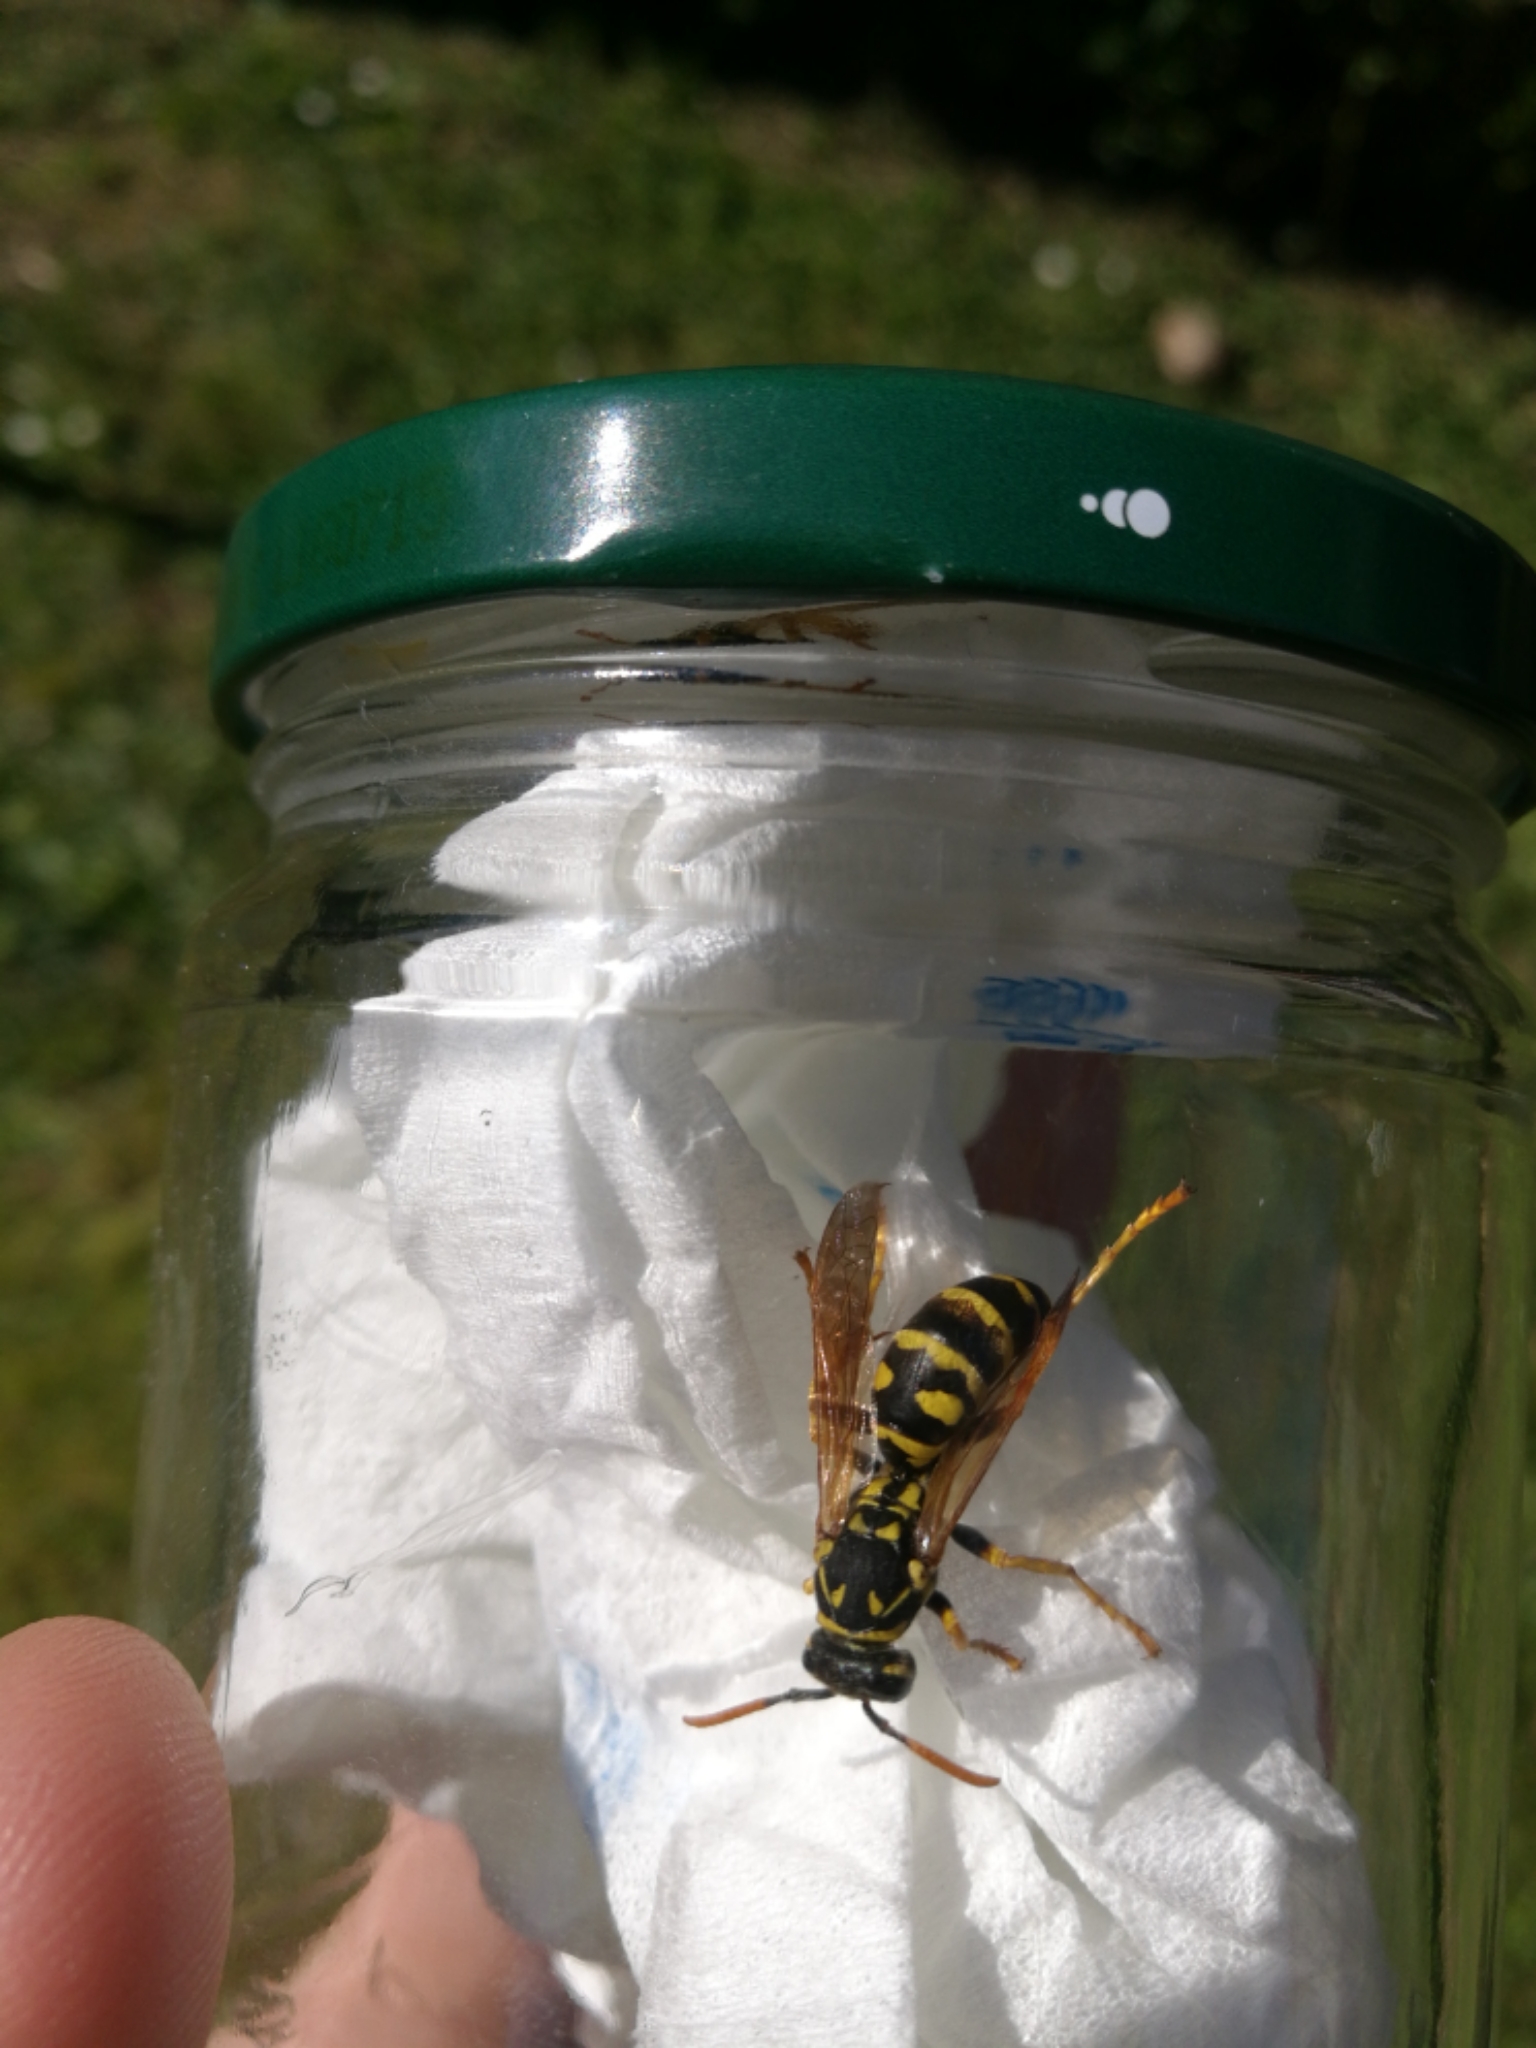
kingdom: Animalia
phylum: Arthropoda
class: Insecta
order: Hymenoptera
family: Eumenidae
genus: Polistes
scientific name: Polistes dominula
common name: Paper wasp
